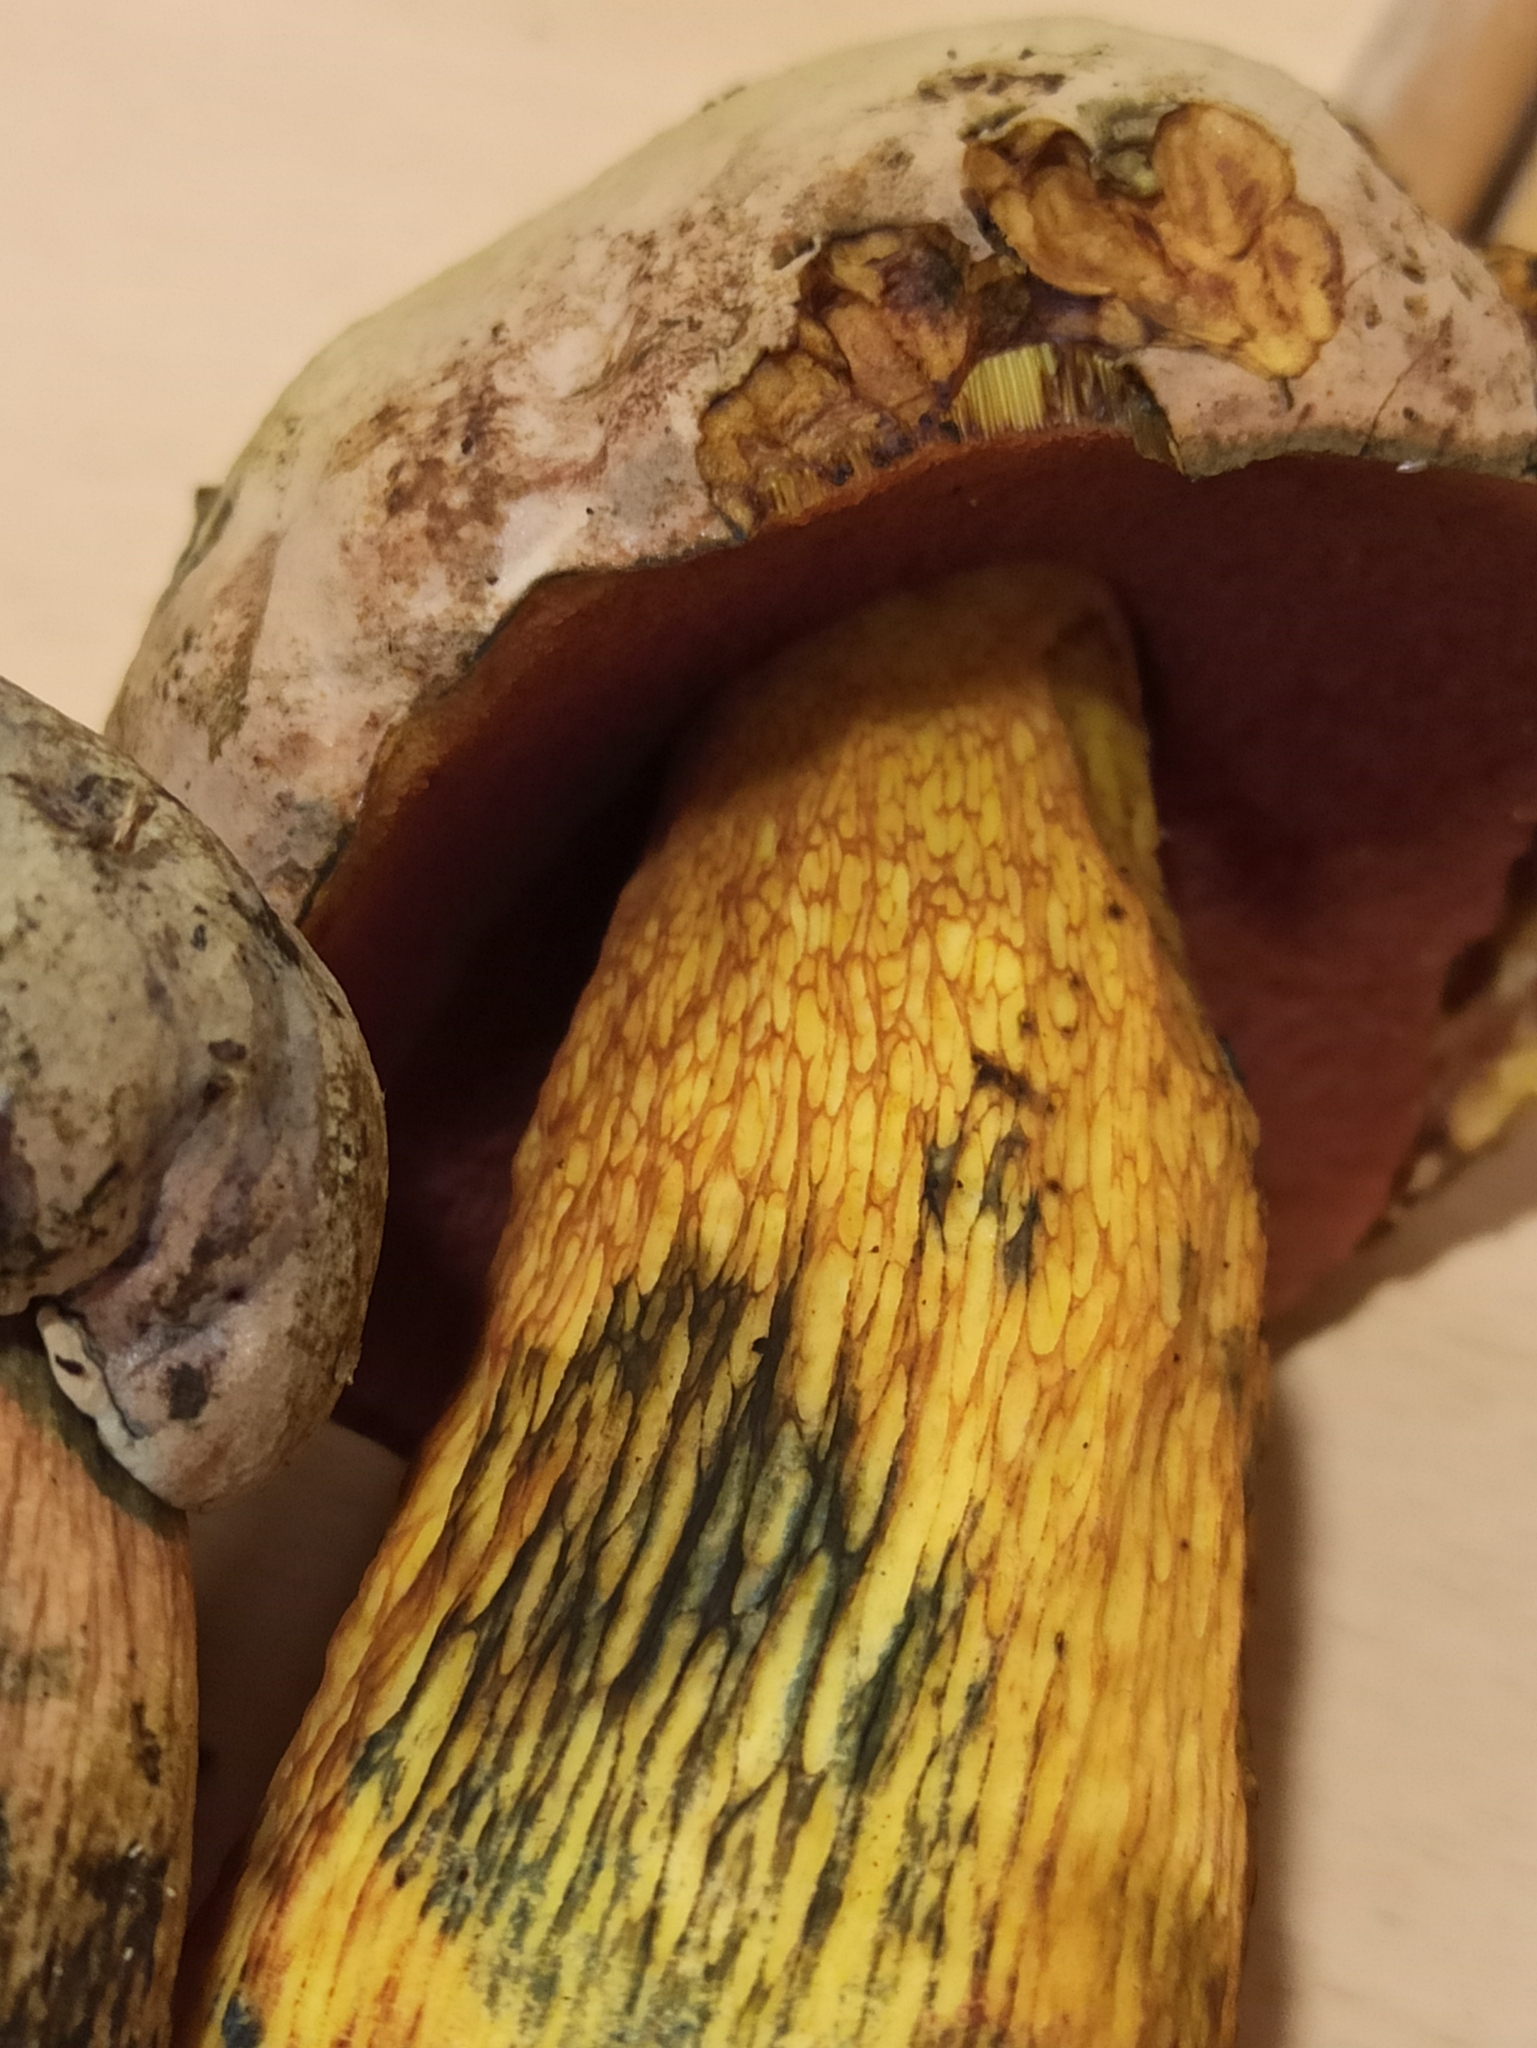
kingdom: Fungi
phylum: Basidiomycota
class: Agaricomycetes
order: Boletales
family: Boletaceae
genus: Suillellus
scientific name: Suillellus luridus
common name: Lurid bolete
